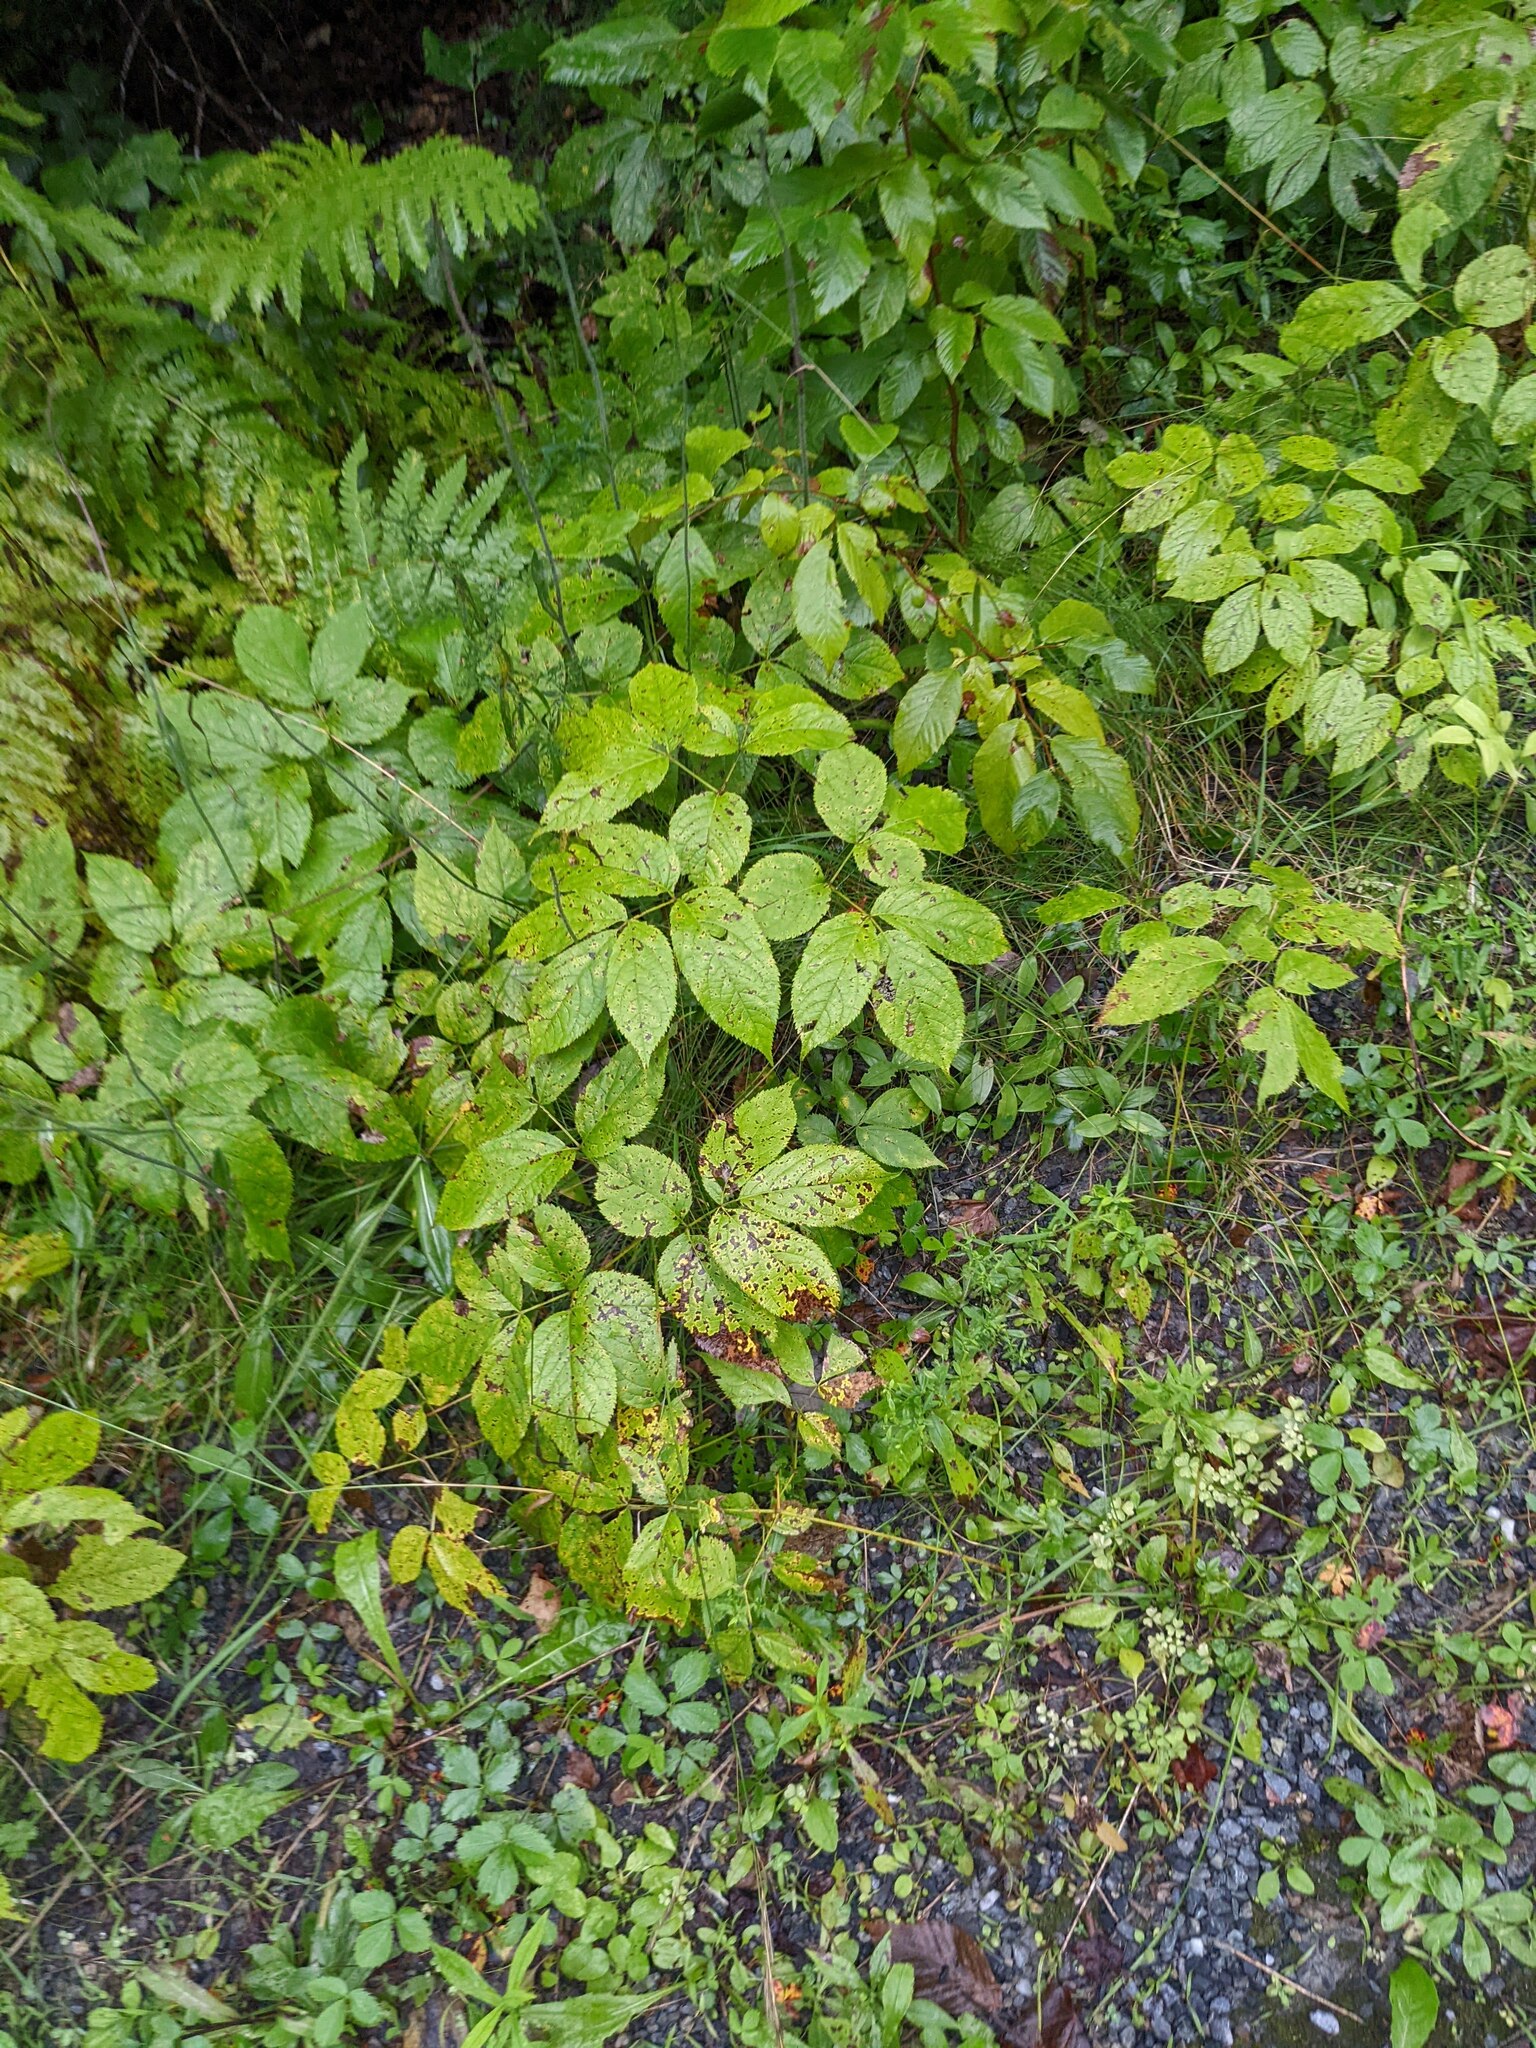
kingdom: Plantae
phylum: Tracheophyta
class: Magnoliopsida
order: Apiales
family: Araliaceae
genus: Aralia
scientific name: Aralia nudicaulis
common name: Wild sarsaparilla
